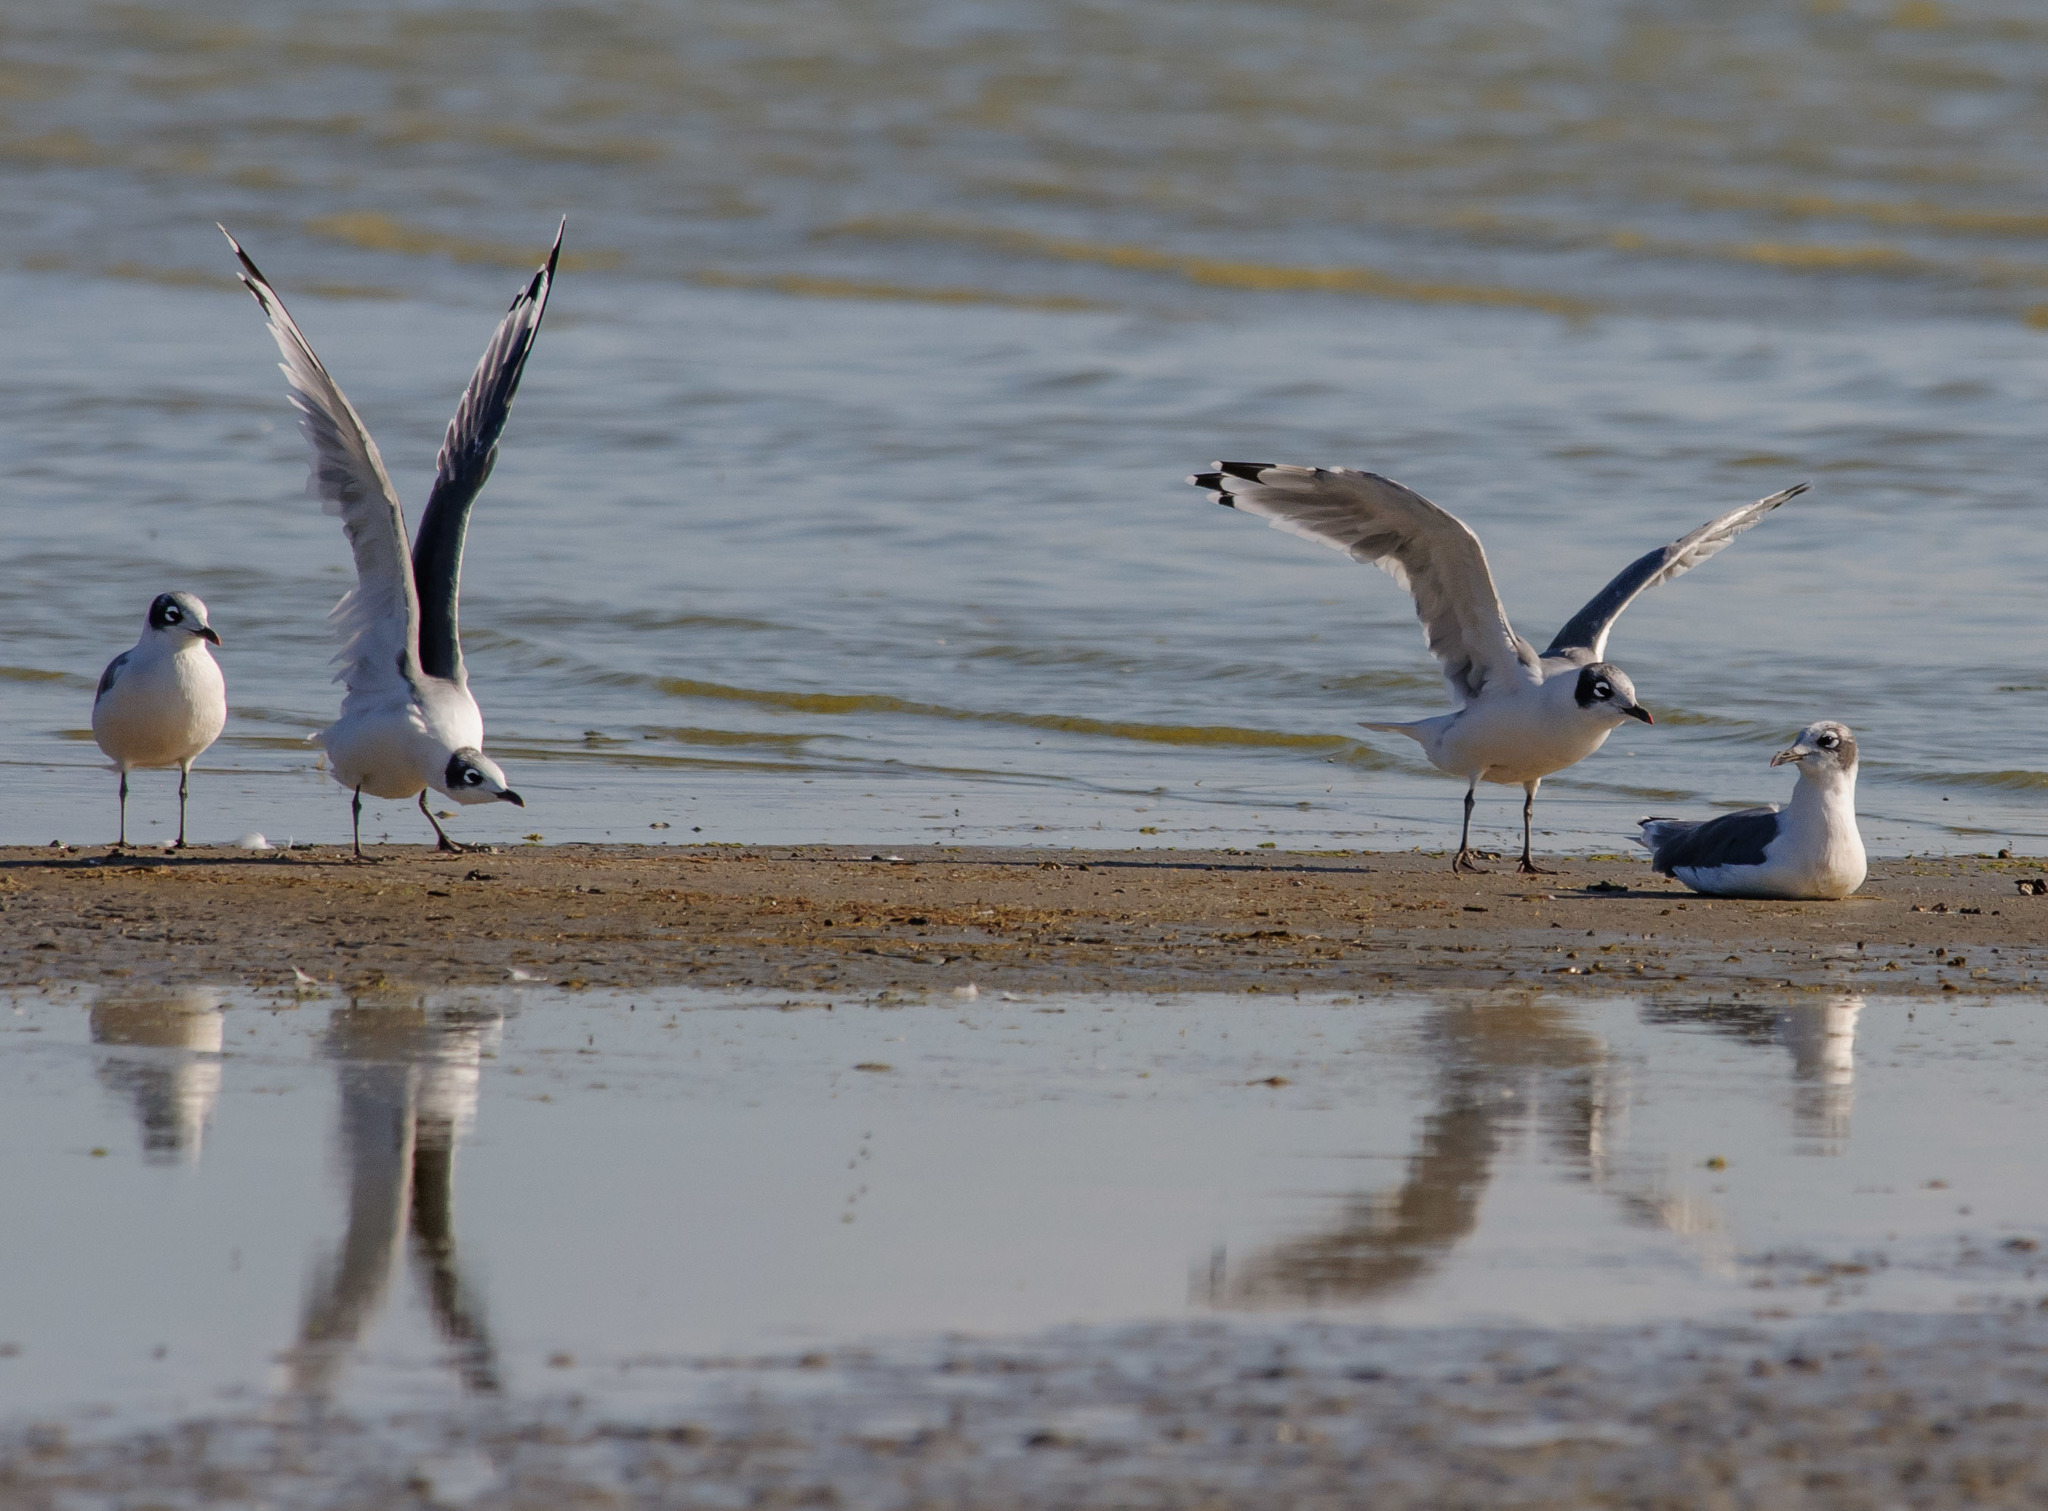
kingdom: Animalia
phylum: Chordata
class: Aves
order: Charadriiformes
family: Laridae
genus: Leucophaeus
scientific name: Leucophaeus pipixcan
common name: Franklin's gull
